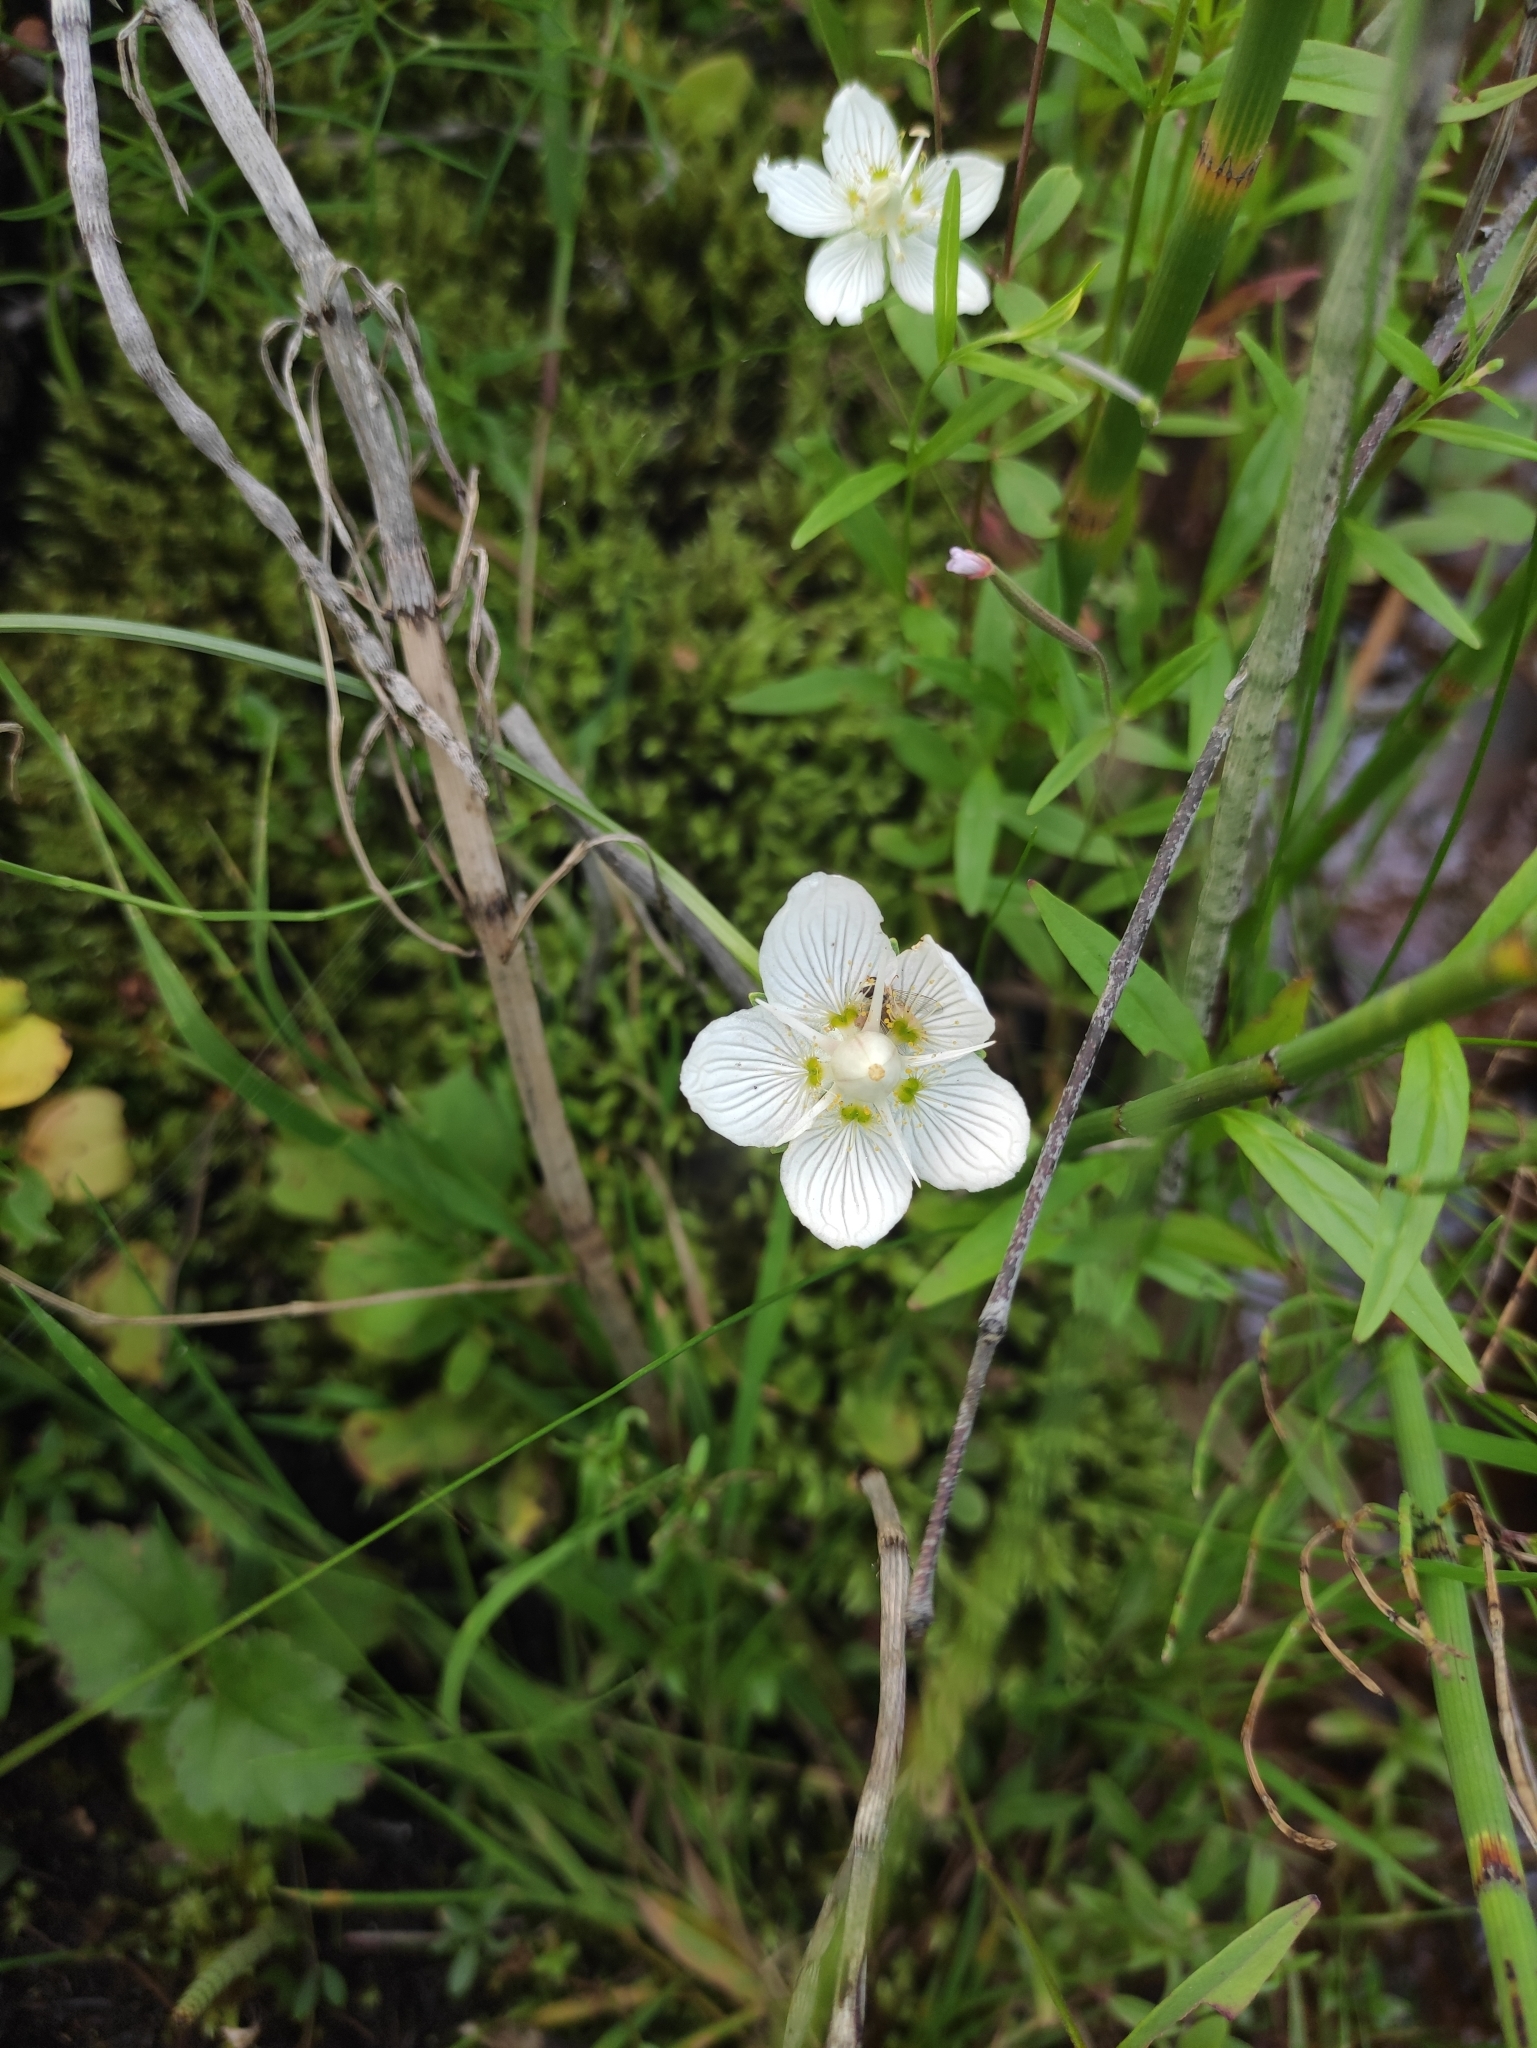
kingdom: Plantae
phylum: Tracheophyta
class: Magnoliopsida
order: Celastrales
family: Parnassiaceae
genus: Parnassia
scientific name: Parnassia palustris
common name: Grass-of-parnassus
